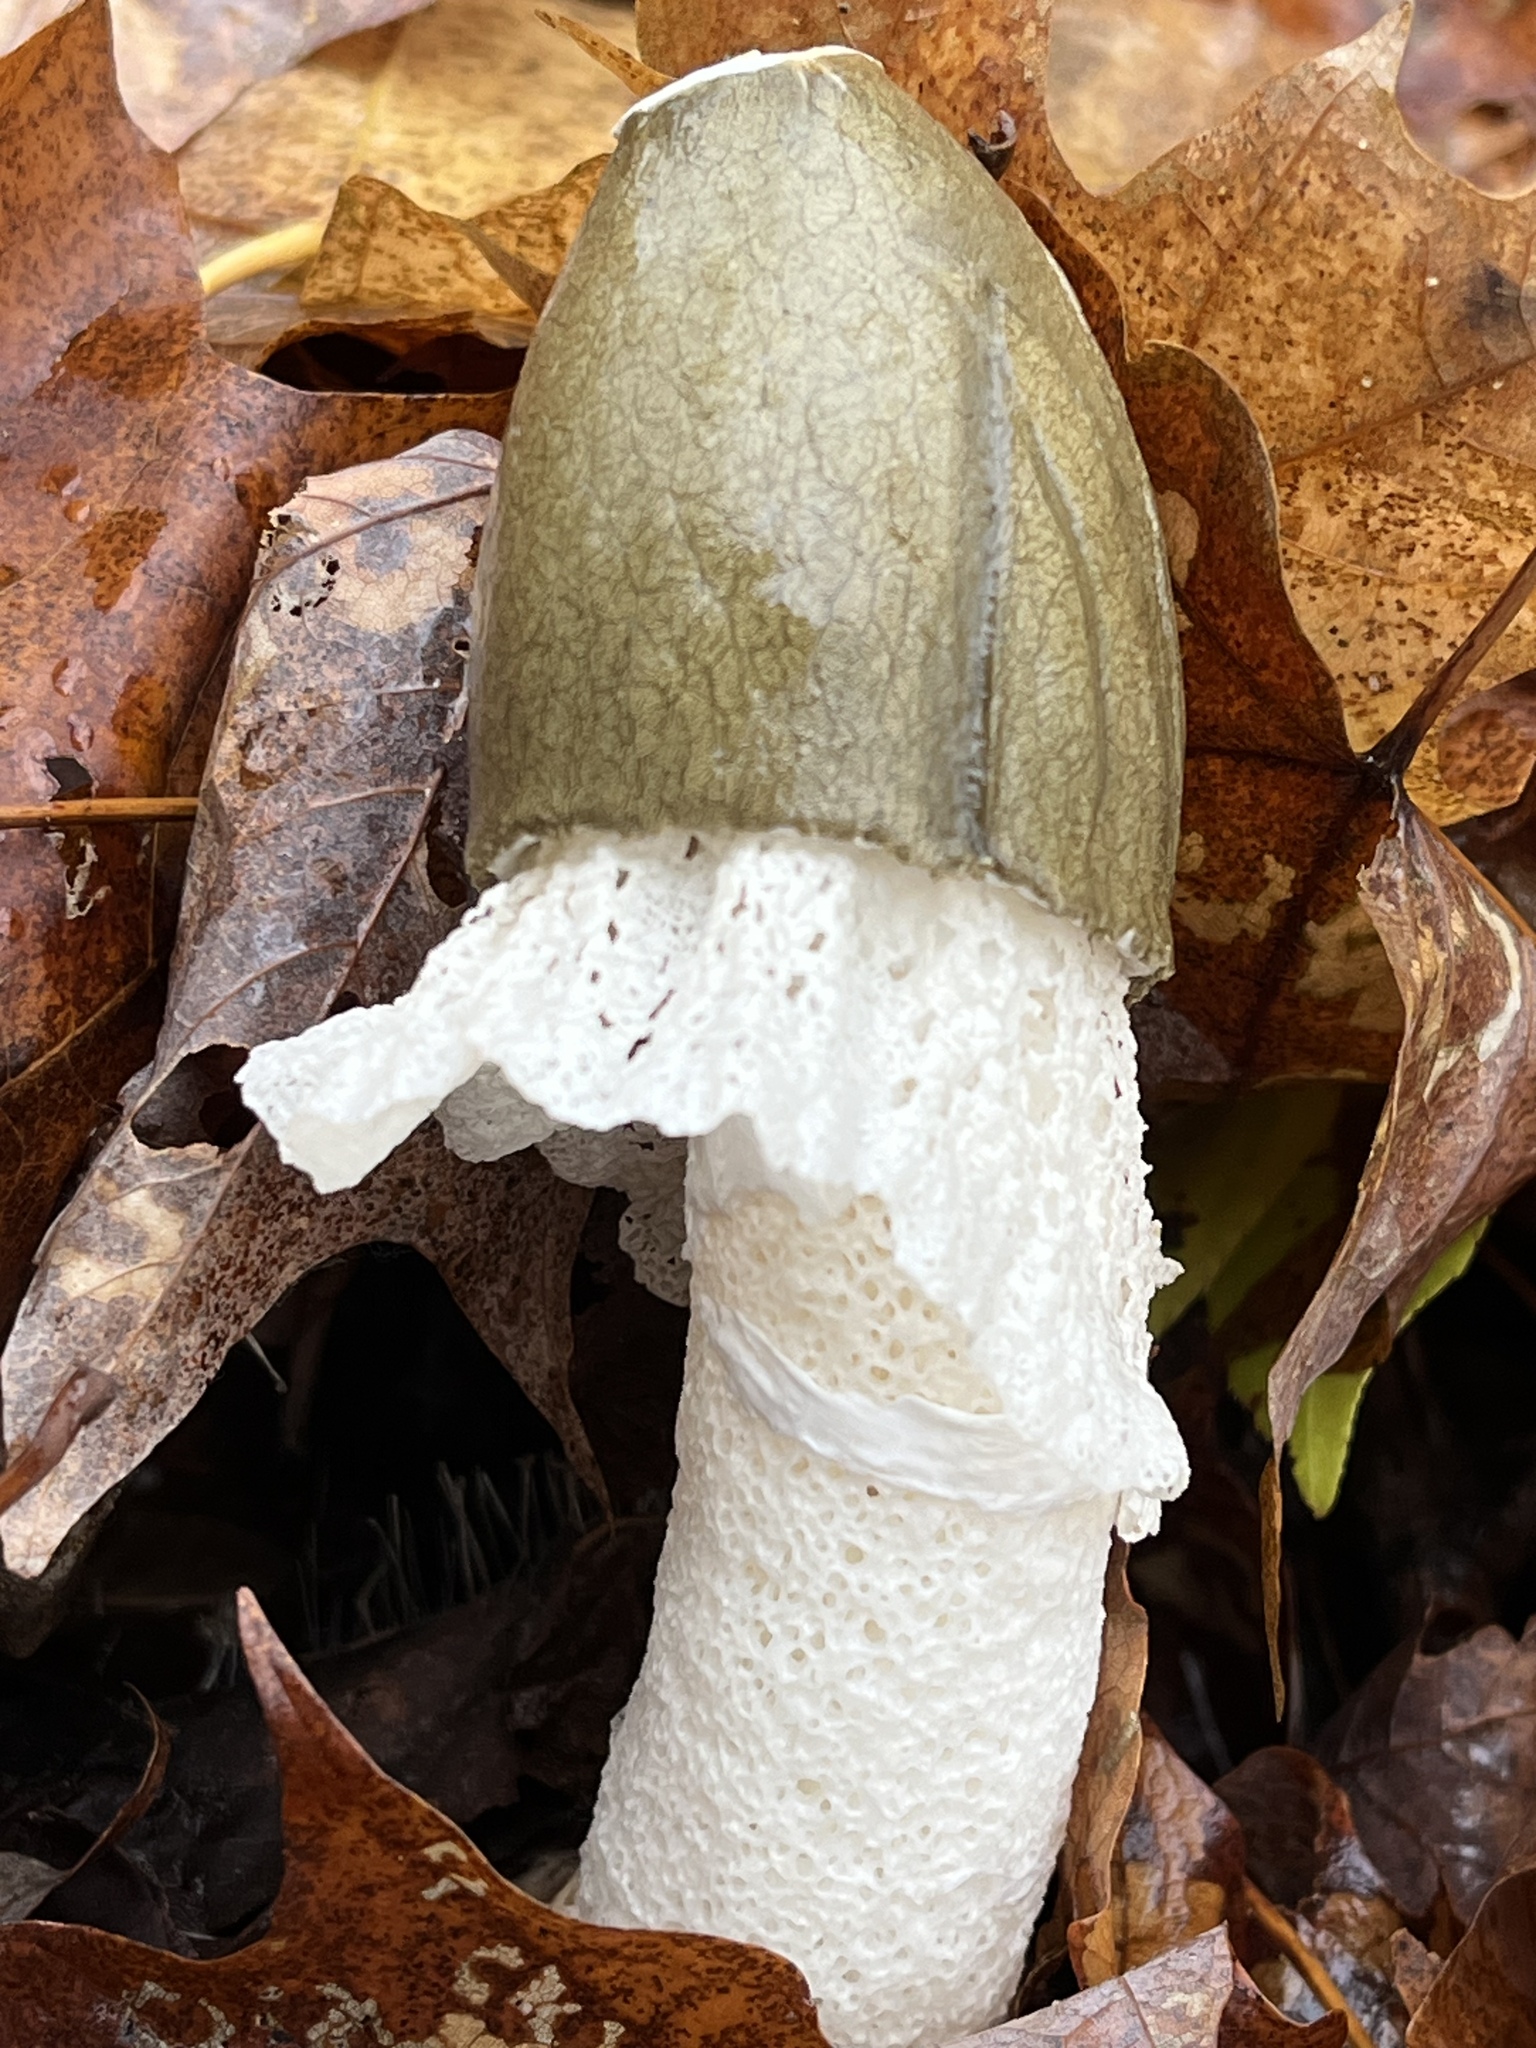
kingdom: Fungi
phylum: Basidiomycota
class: Agaricomycetes
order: Phallales
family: Phallaceae
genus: Phallus
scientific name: Phallus indusiatus
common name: Bridal veil stinkhorn
